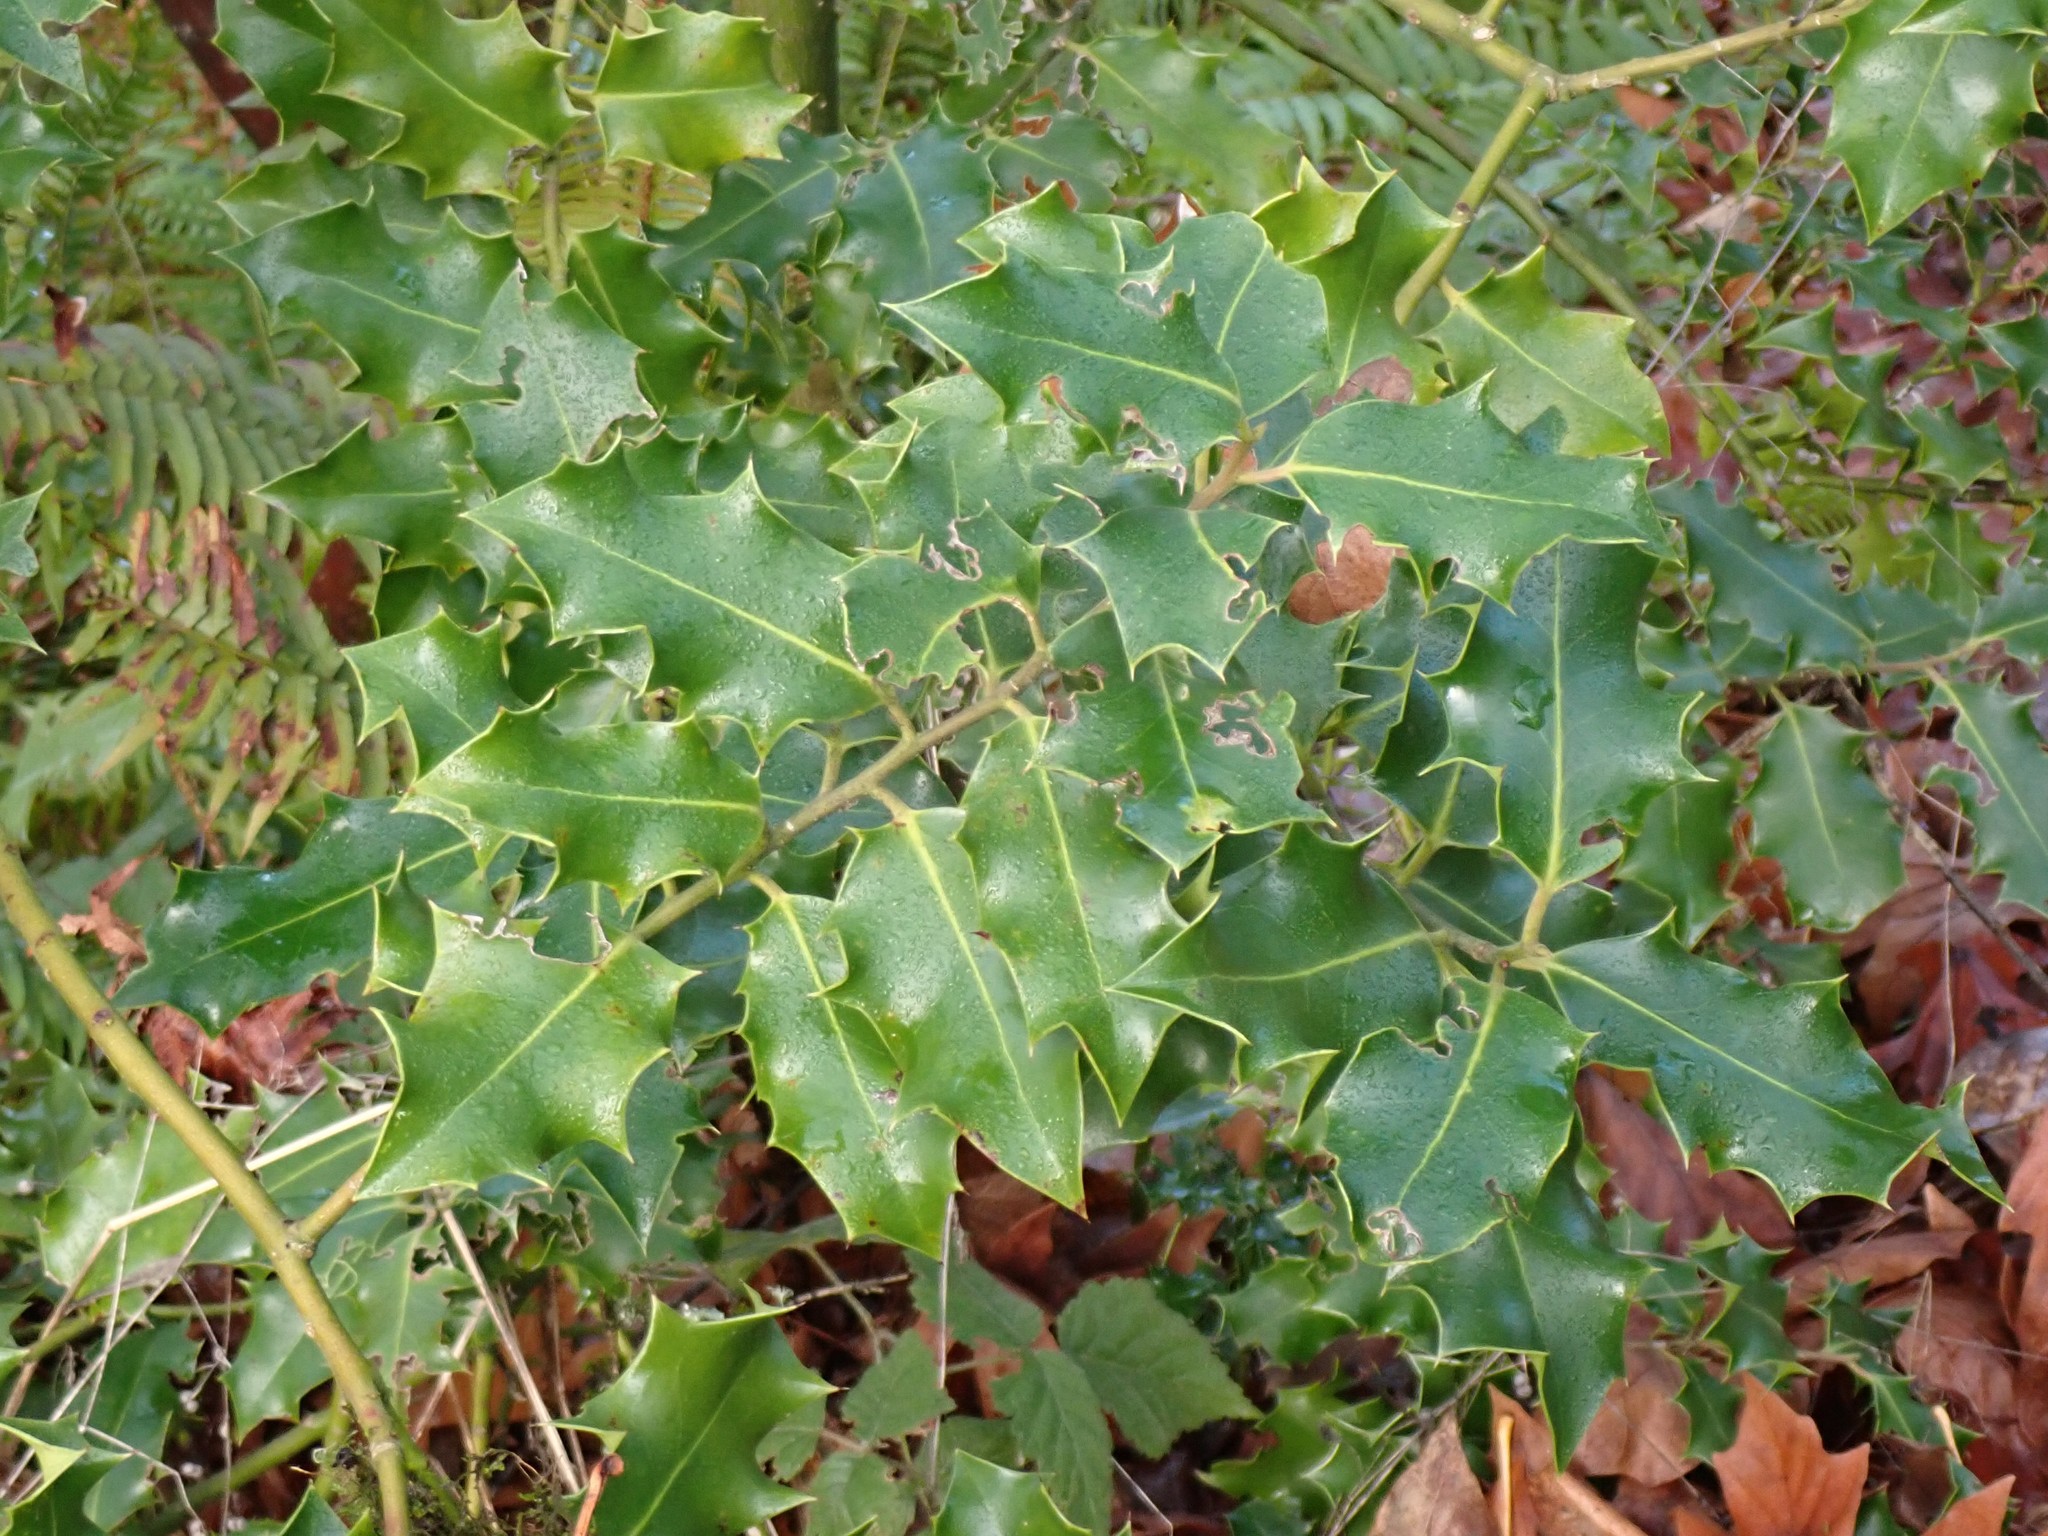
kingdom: Plantae
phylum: Tracheophyta
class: Magnoliopsida
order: Aquifoliales
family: Aquifoliaceae
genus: Ilex
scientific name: Ilex aquifolium
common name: English holly
